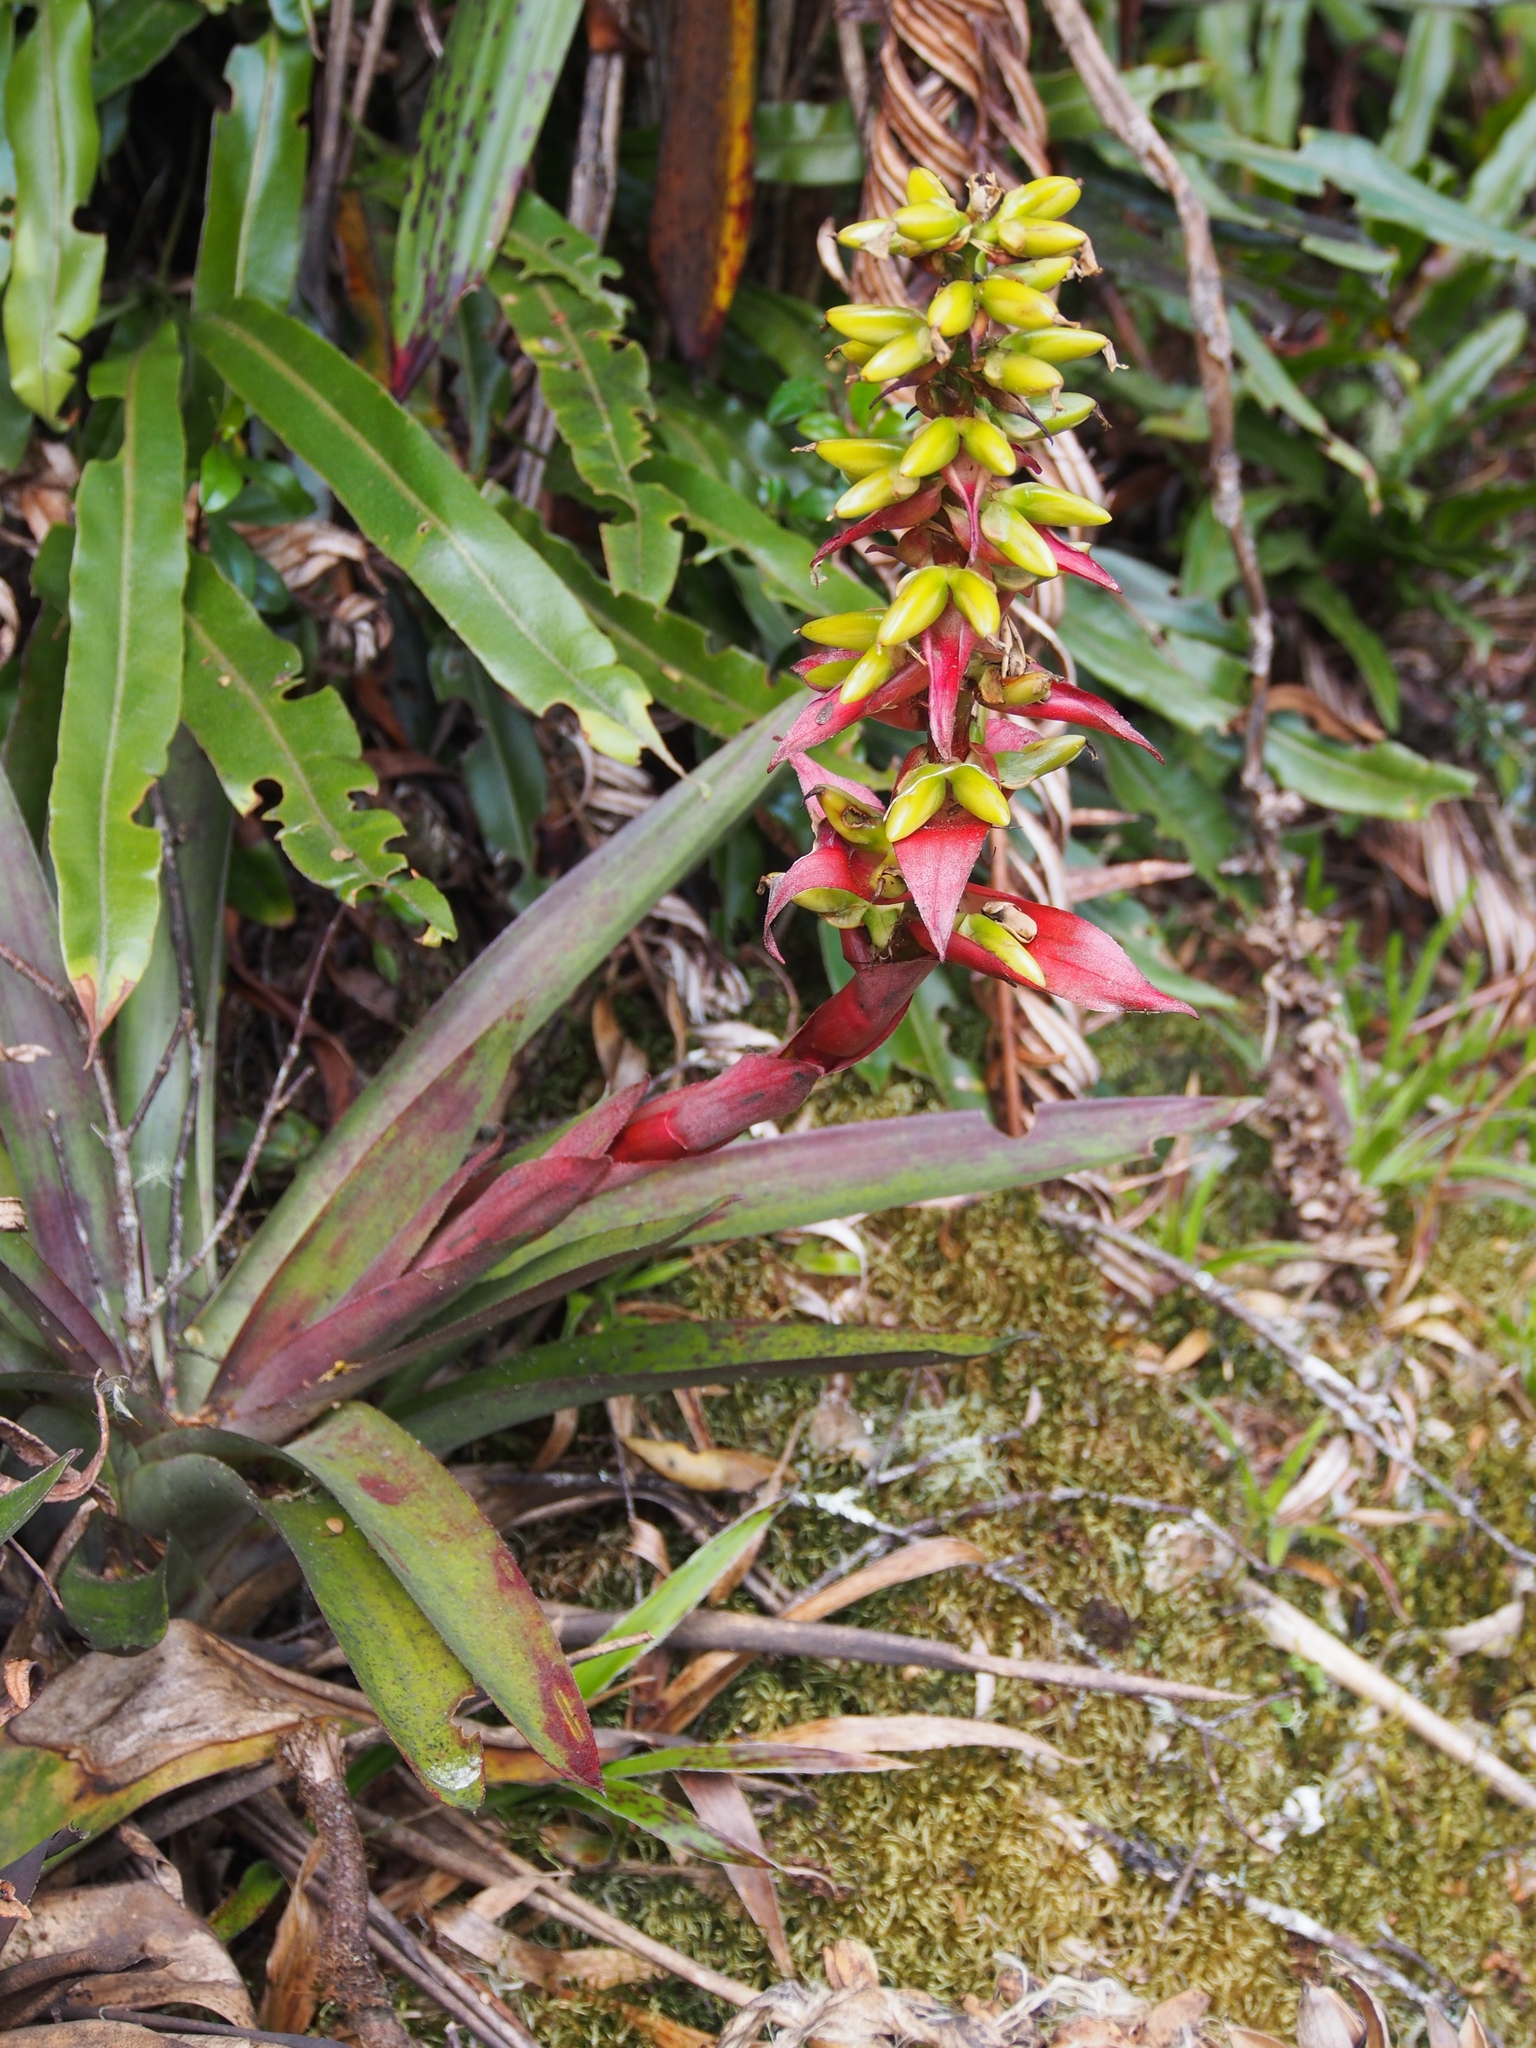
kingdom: Plantae
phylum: Tracheophyta
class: Liliopsida
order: Poales
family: Bromeliaceae
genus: Werauhia
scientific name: Werauhia ororiensis
